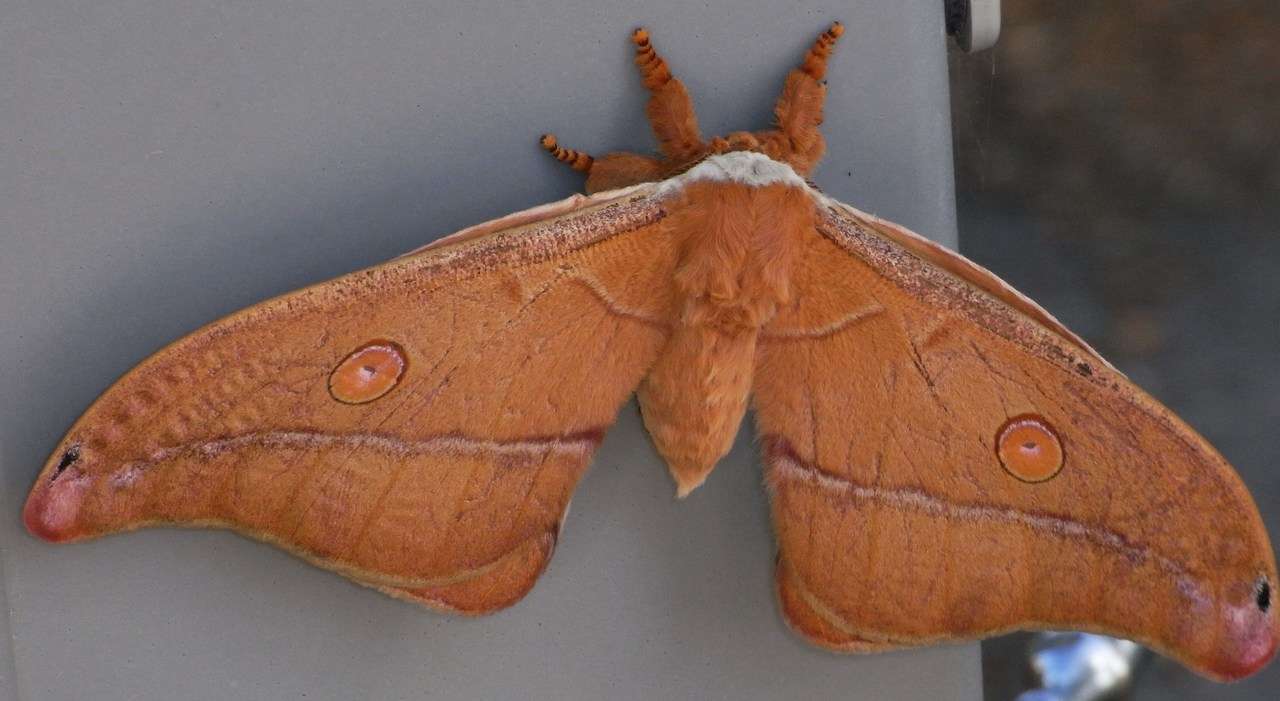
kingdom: Animalia
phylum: Arthropoda
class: Insecta
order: Lepidoptera
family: Saturniidae
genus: Opodiphthera
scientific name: Opodiphthera
